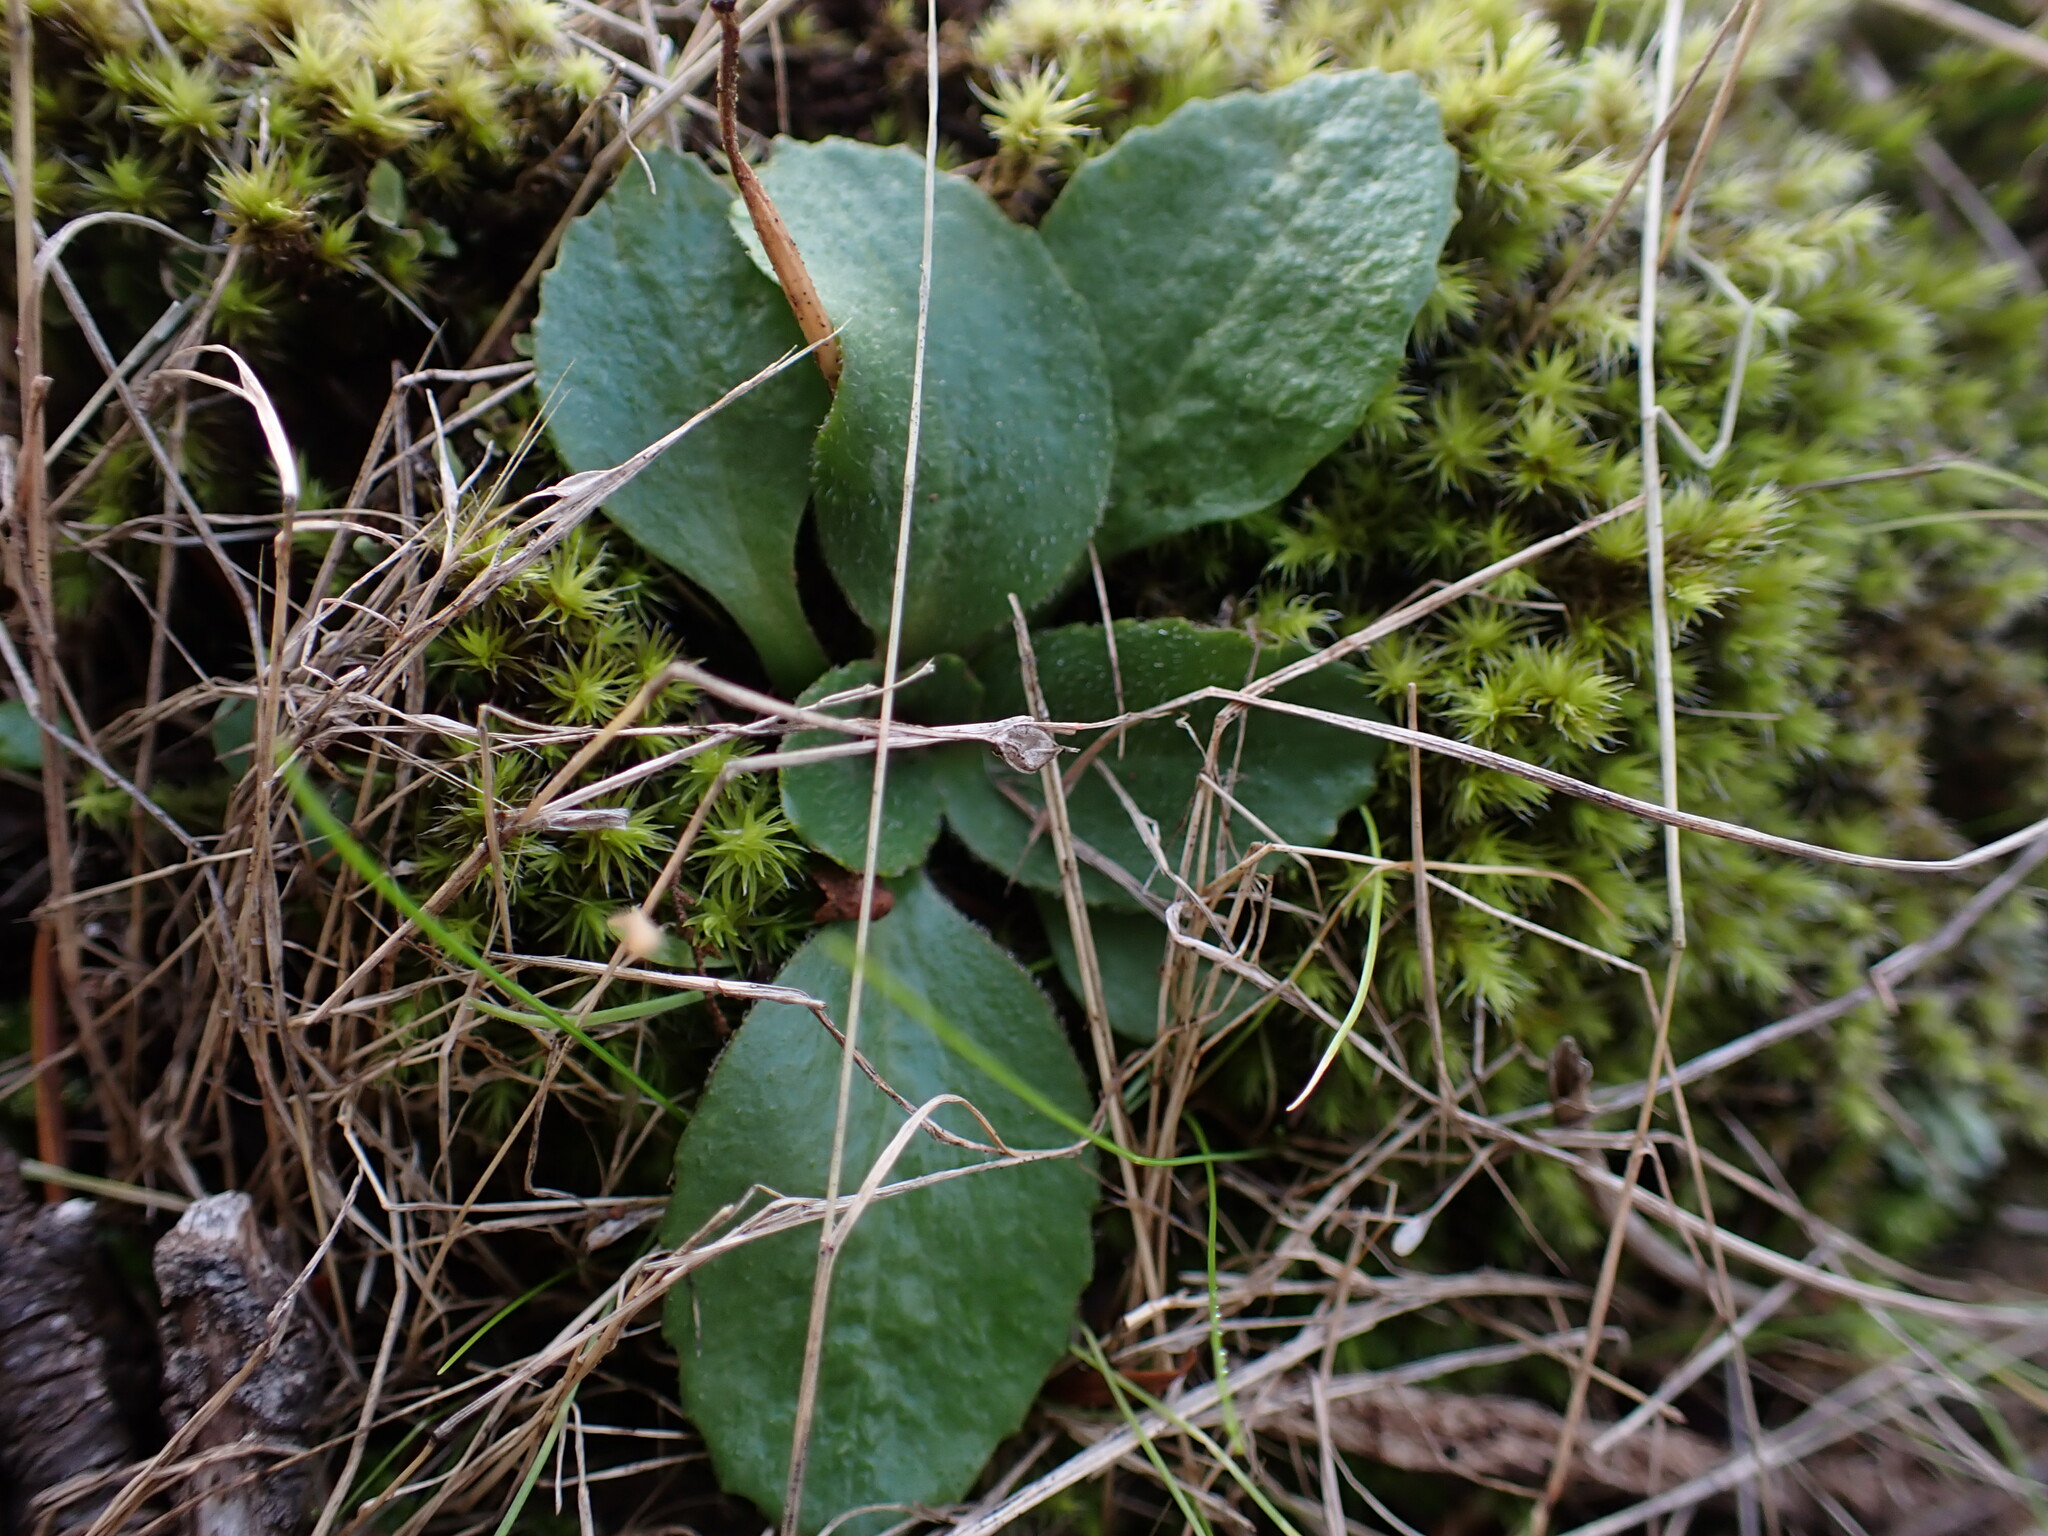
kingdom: Plantae
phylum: Tracheophyta
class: Magnoliopsida
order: Saxifragales
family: Saxifragaceae
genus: Micranthes
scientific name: Micranthes integrifolia
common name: Wholeleaf saxifrage
